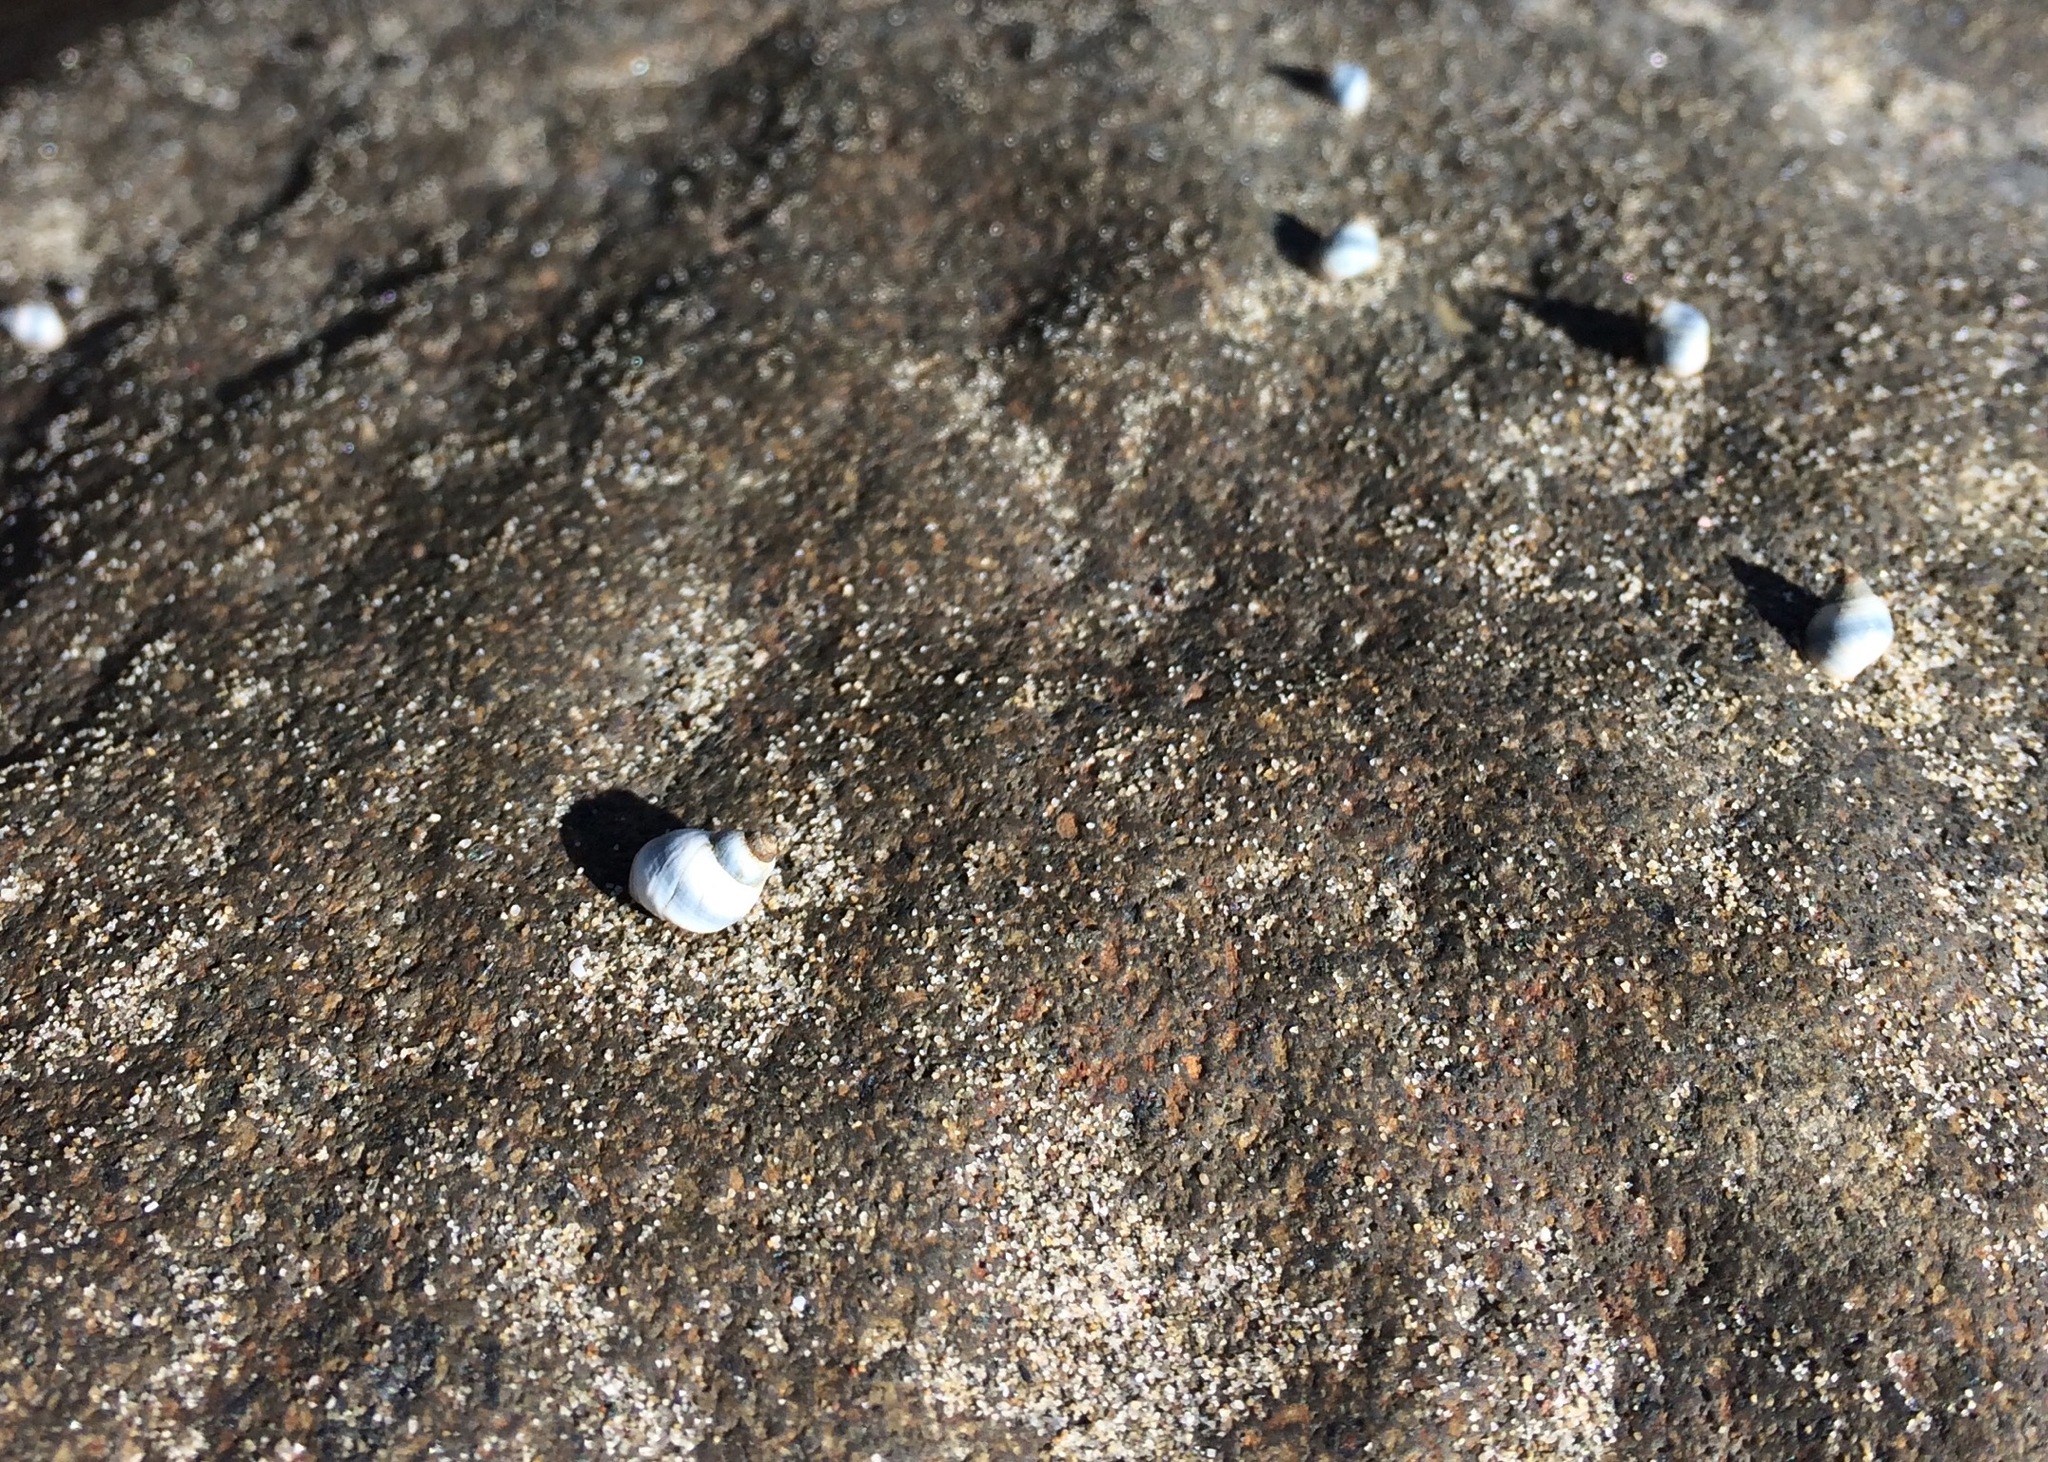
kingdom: Animalia
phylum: Mollusca
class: Gastropoda
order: Littorinimorpha
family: Littorinidae
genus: Austrolittorina
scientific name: Austrolittorina antipodum
